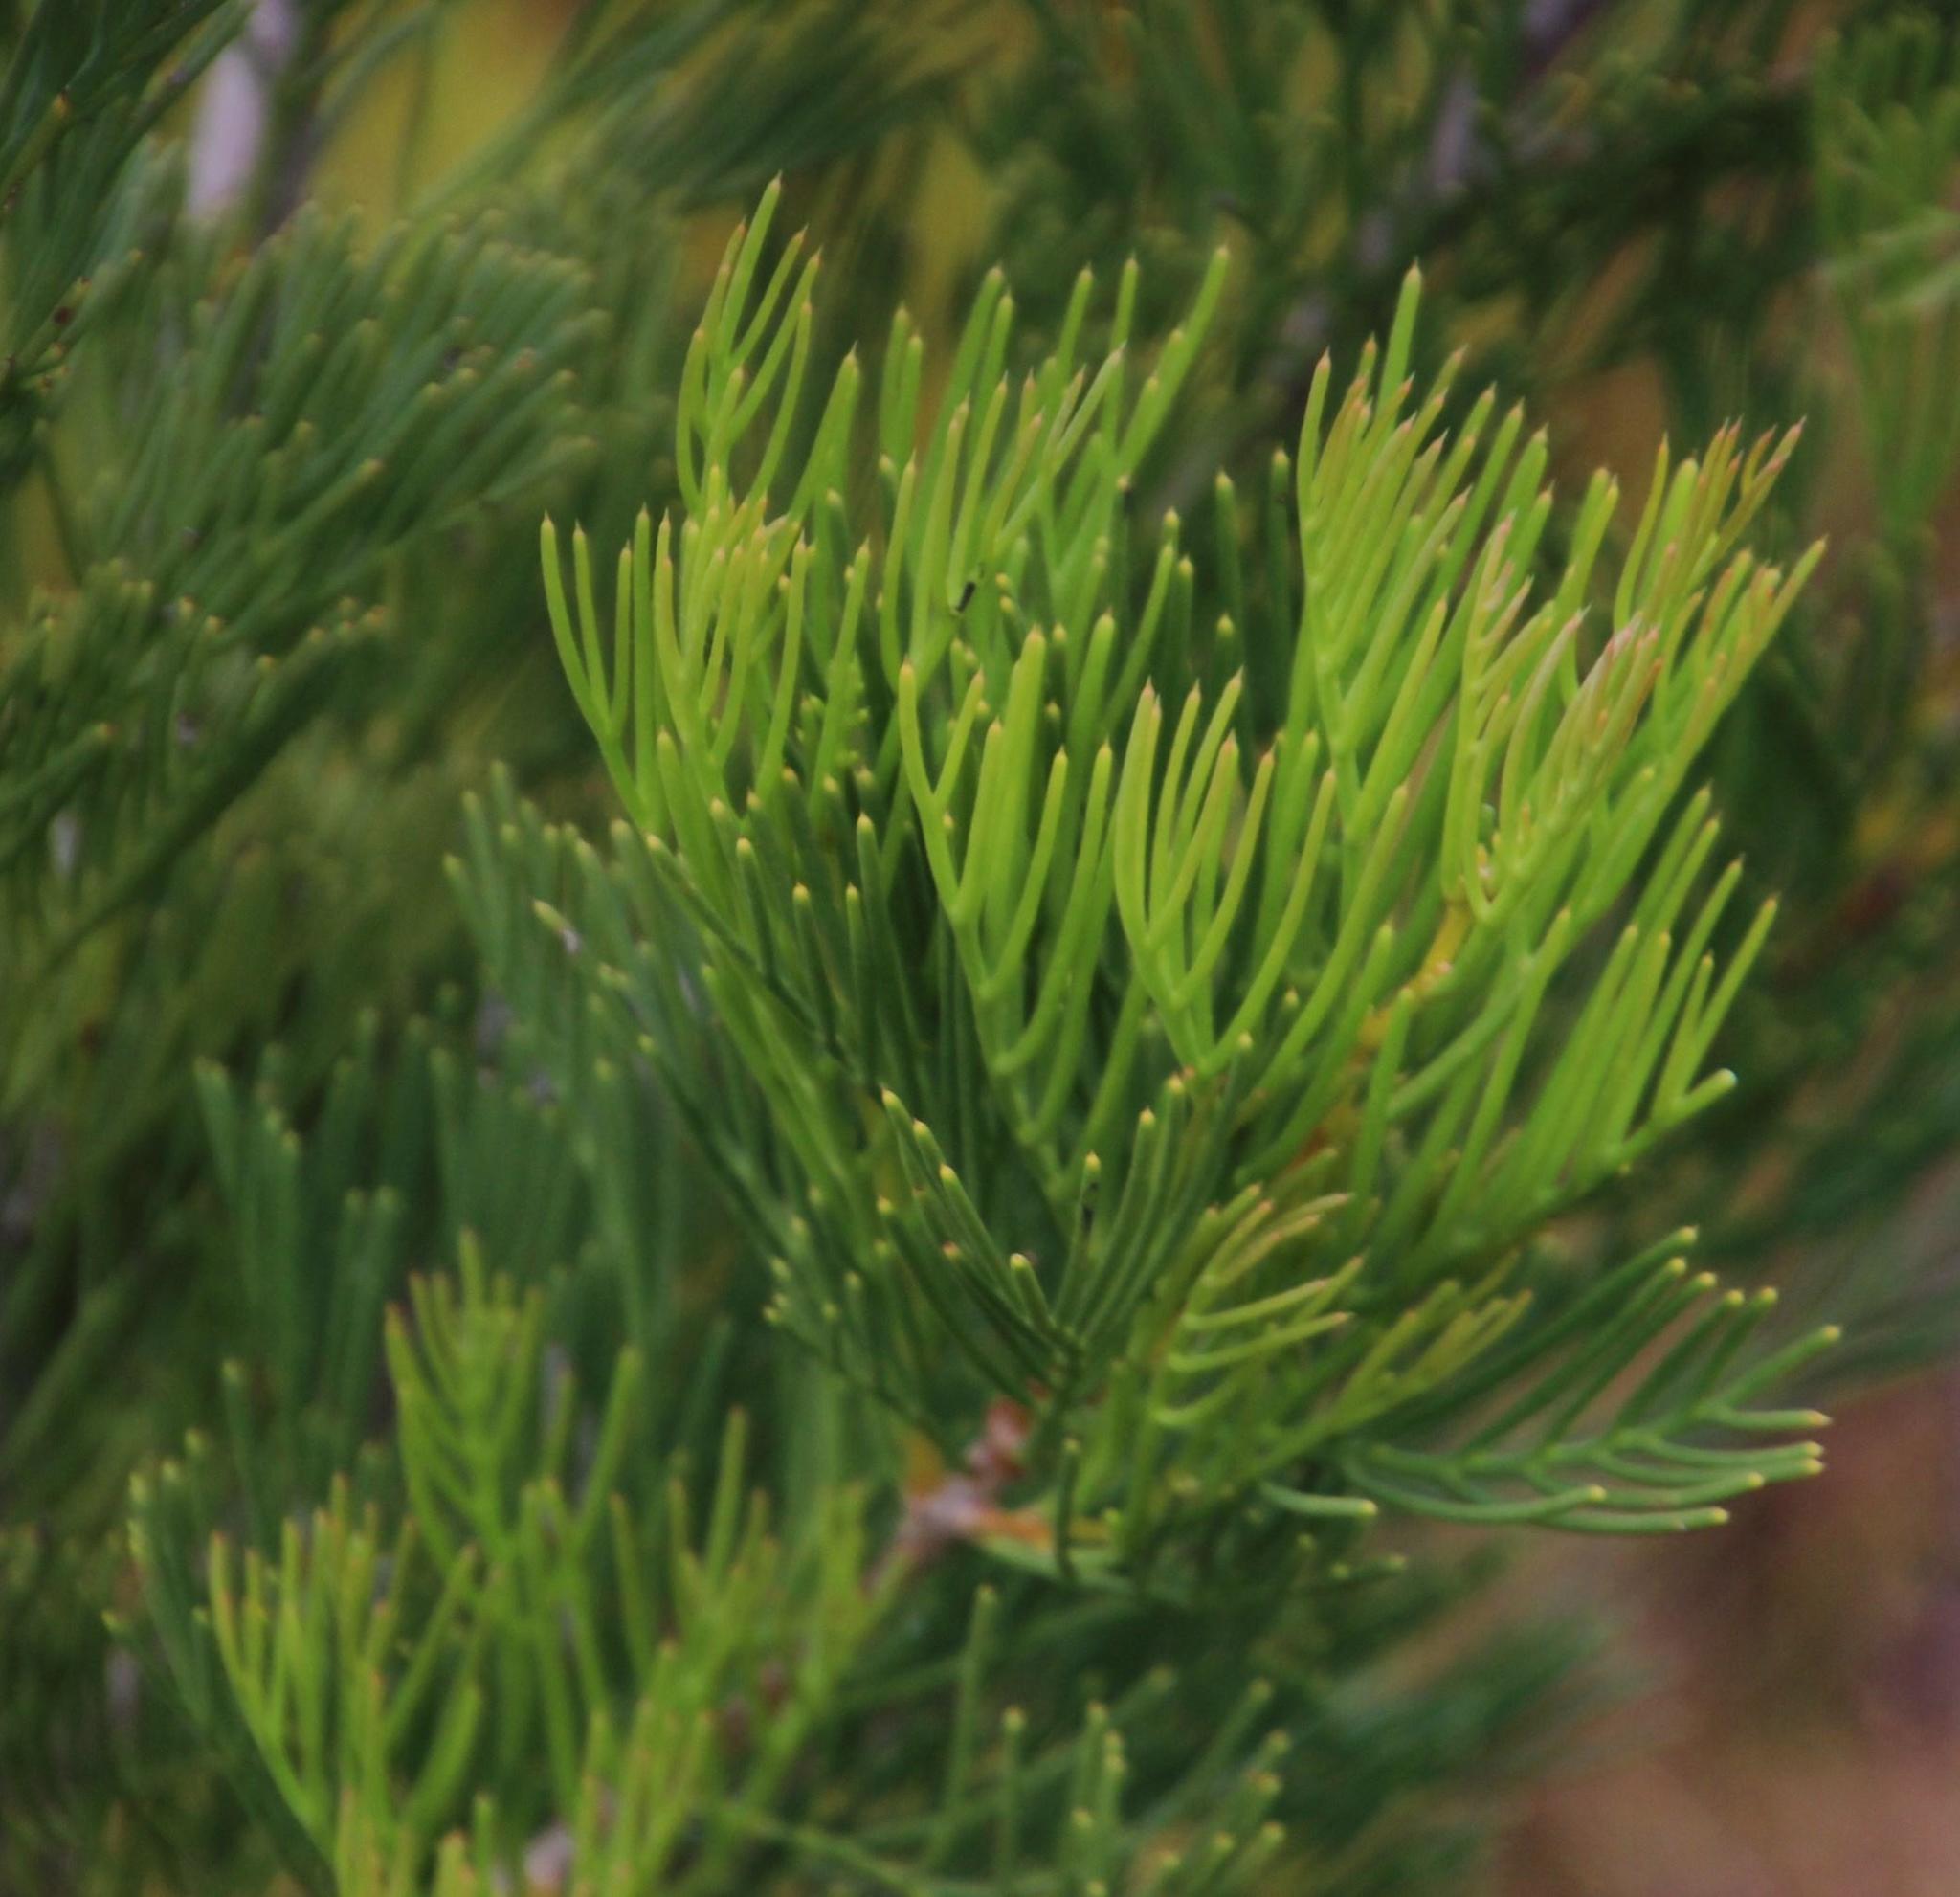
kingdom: Plantae
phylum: Tracheophyta
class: Magnoliopsida
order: Proteales
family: Proteaceae
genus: Hakea
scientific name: Hakea drupacea
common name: Sweet hakea
